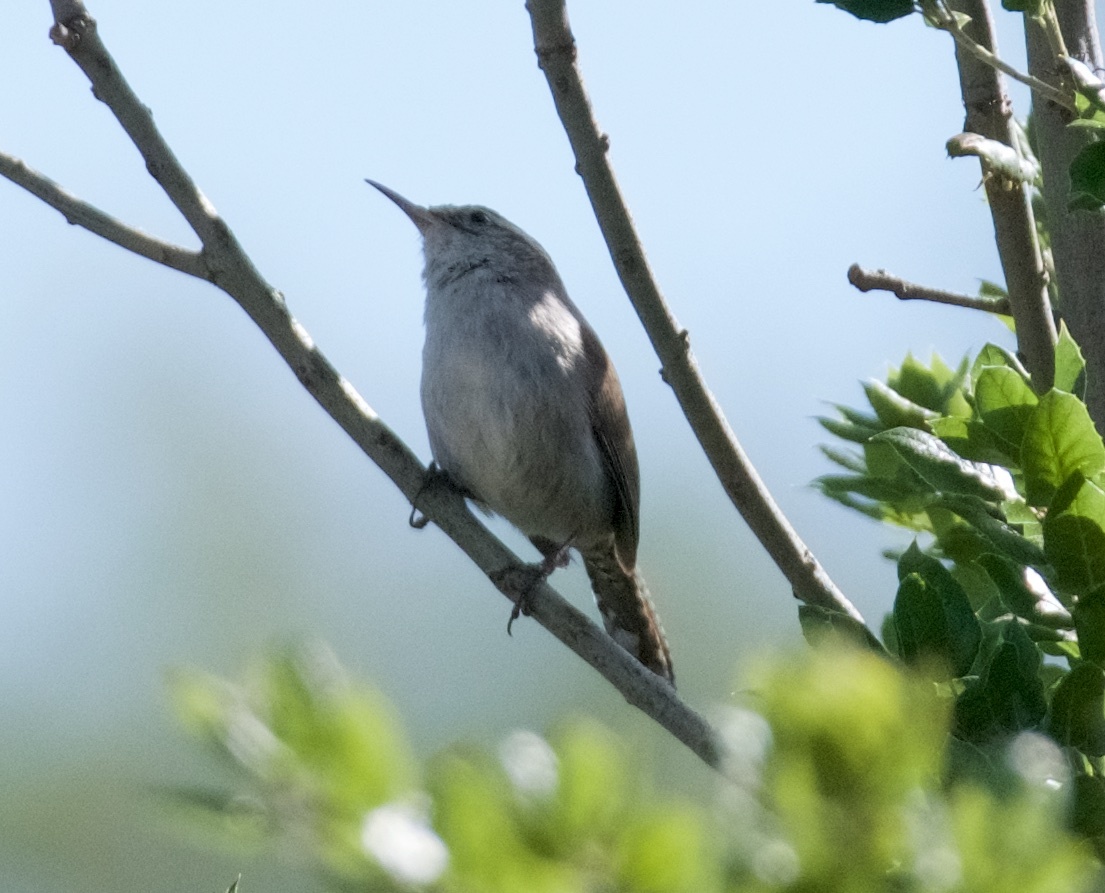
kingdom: Animalia
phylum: Chordata
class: Aves
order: Passeriformes
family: Troglodytidae
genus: Thryomanes
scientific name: Thryomanes bewickii
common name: Bewick's wren
